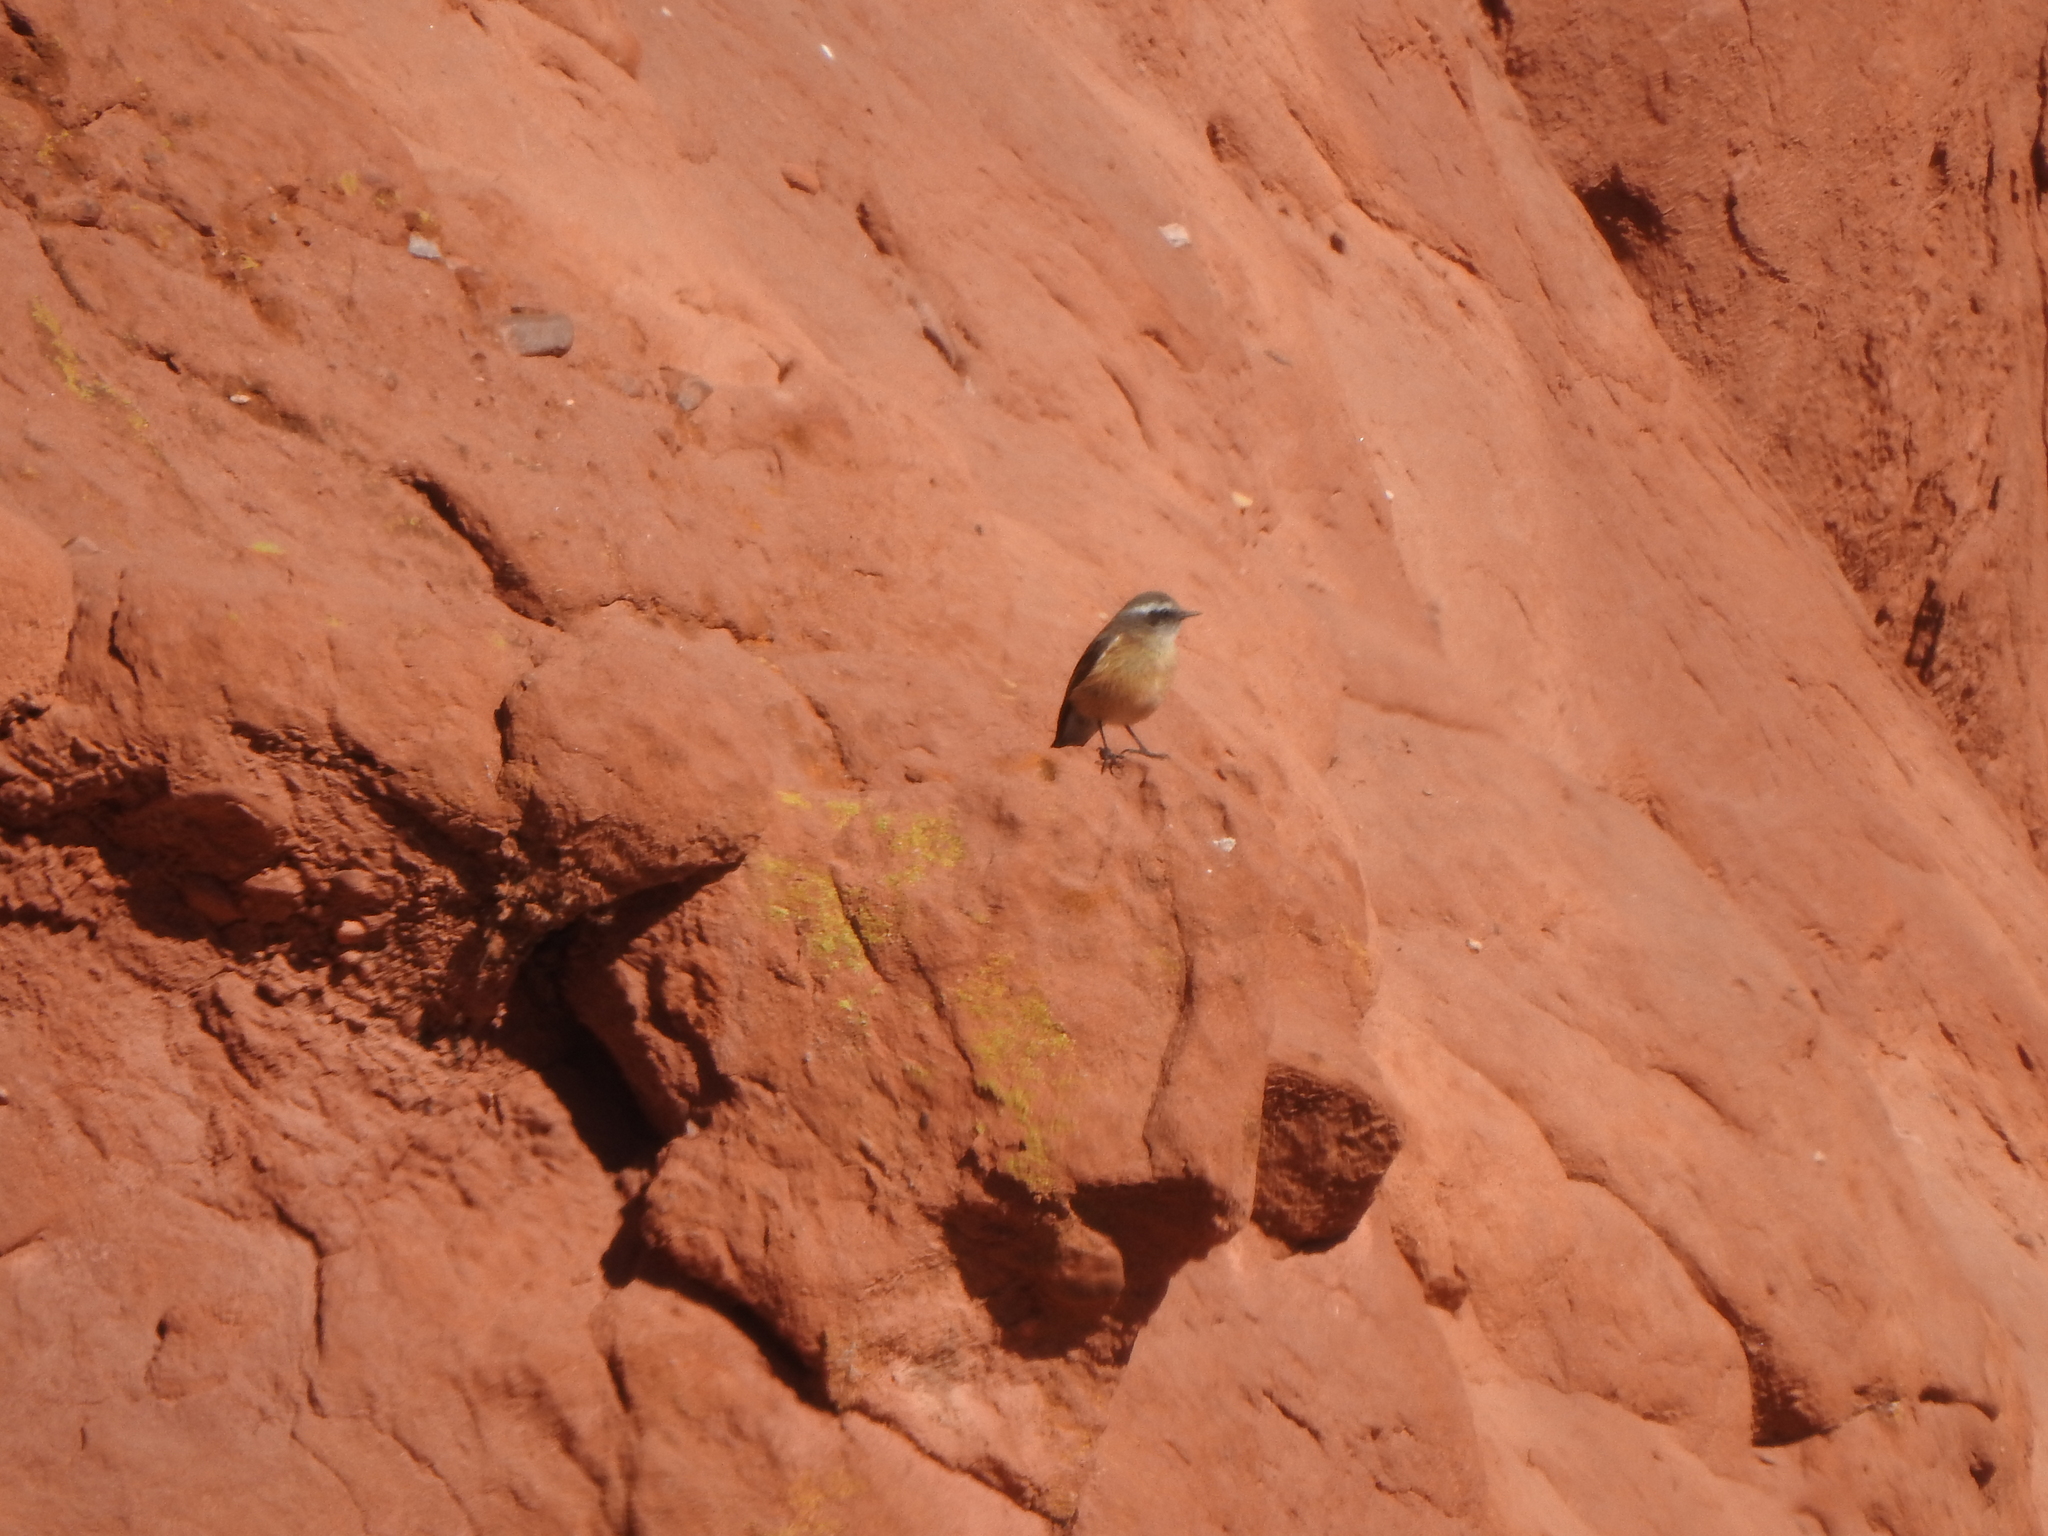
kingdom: Animalia
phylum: Chordata
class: Aves
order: Passeriformes
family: Tyrannidae
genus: Ochthoeca
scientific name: Ochthoeca oenanthoides
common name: D'orbigny's chat-tyrant
